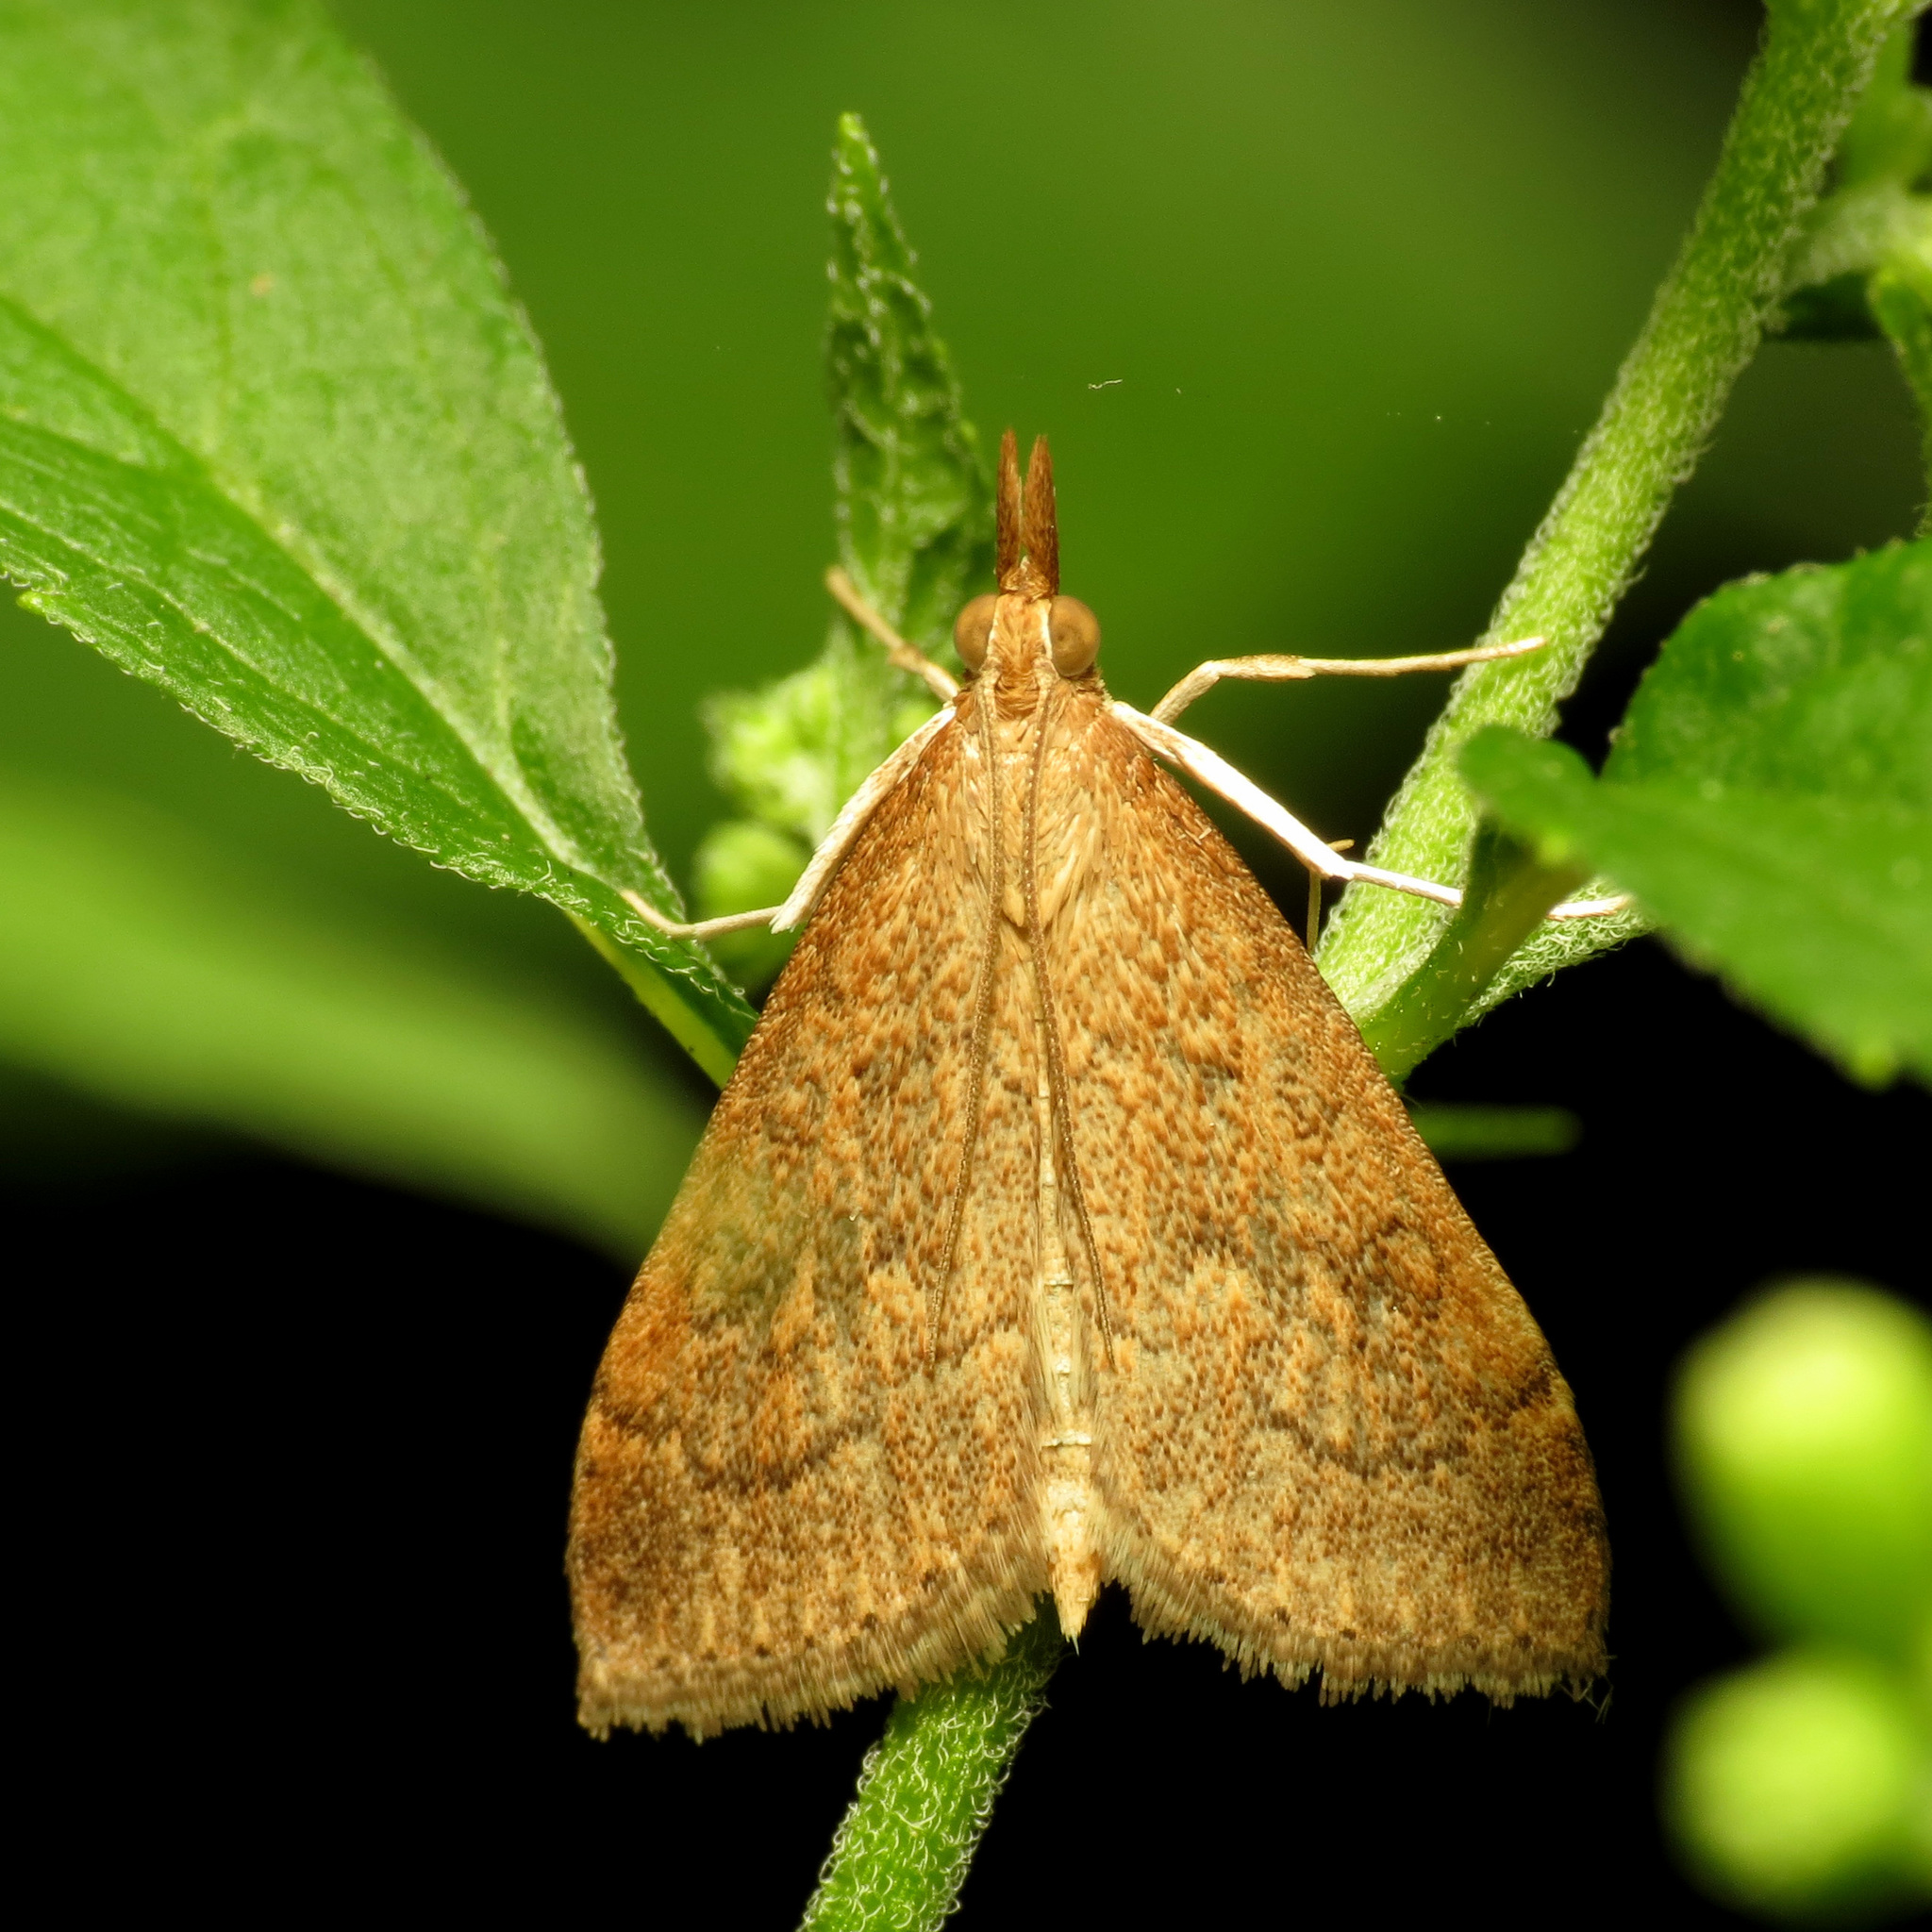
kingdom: Animalia
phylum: Arthropoda
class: Insecta
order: Lepidoptera
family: Crambidae
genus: Udea
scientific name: Udea rubigalis
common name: Celery leaftier moth
